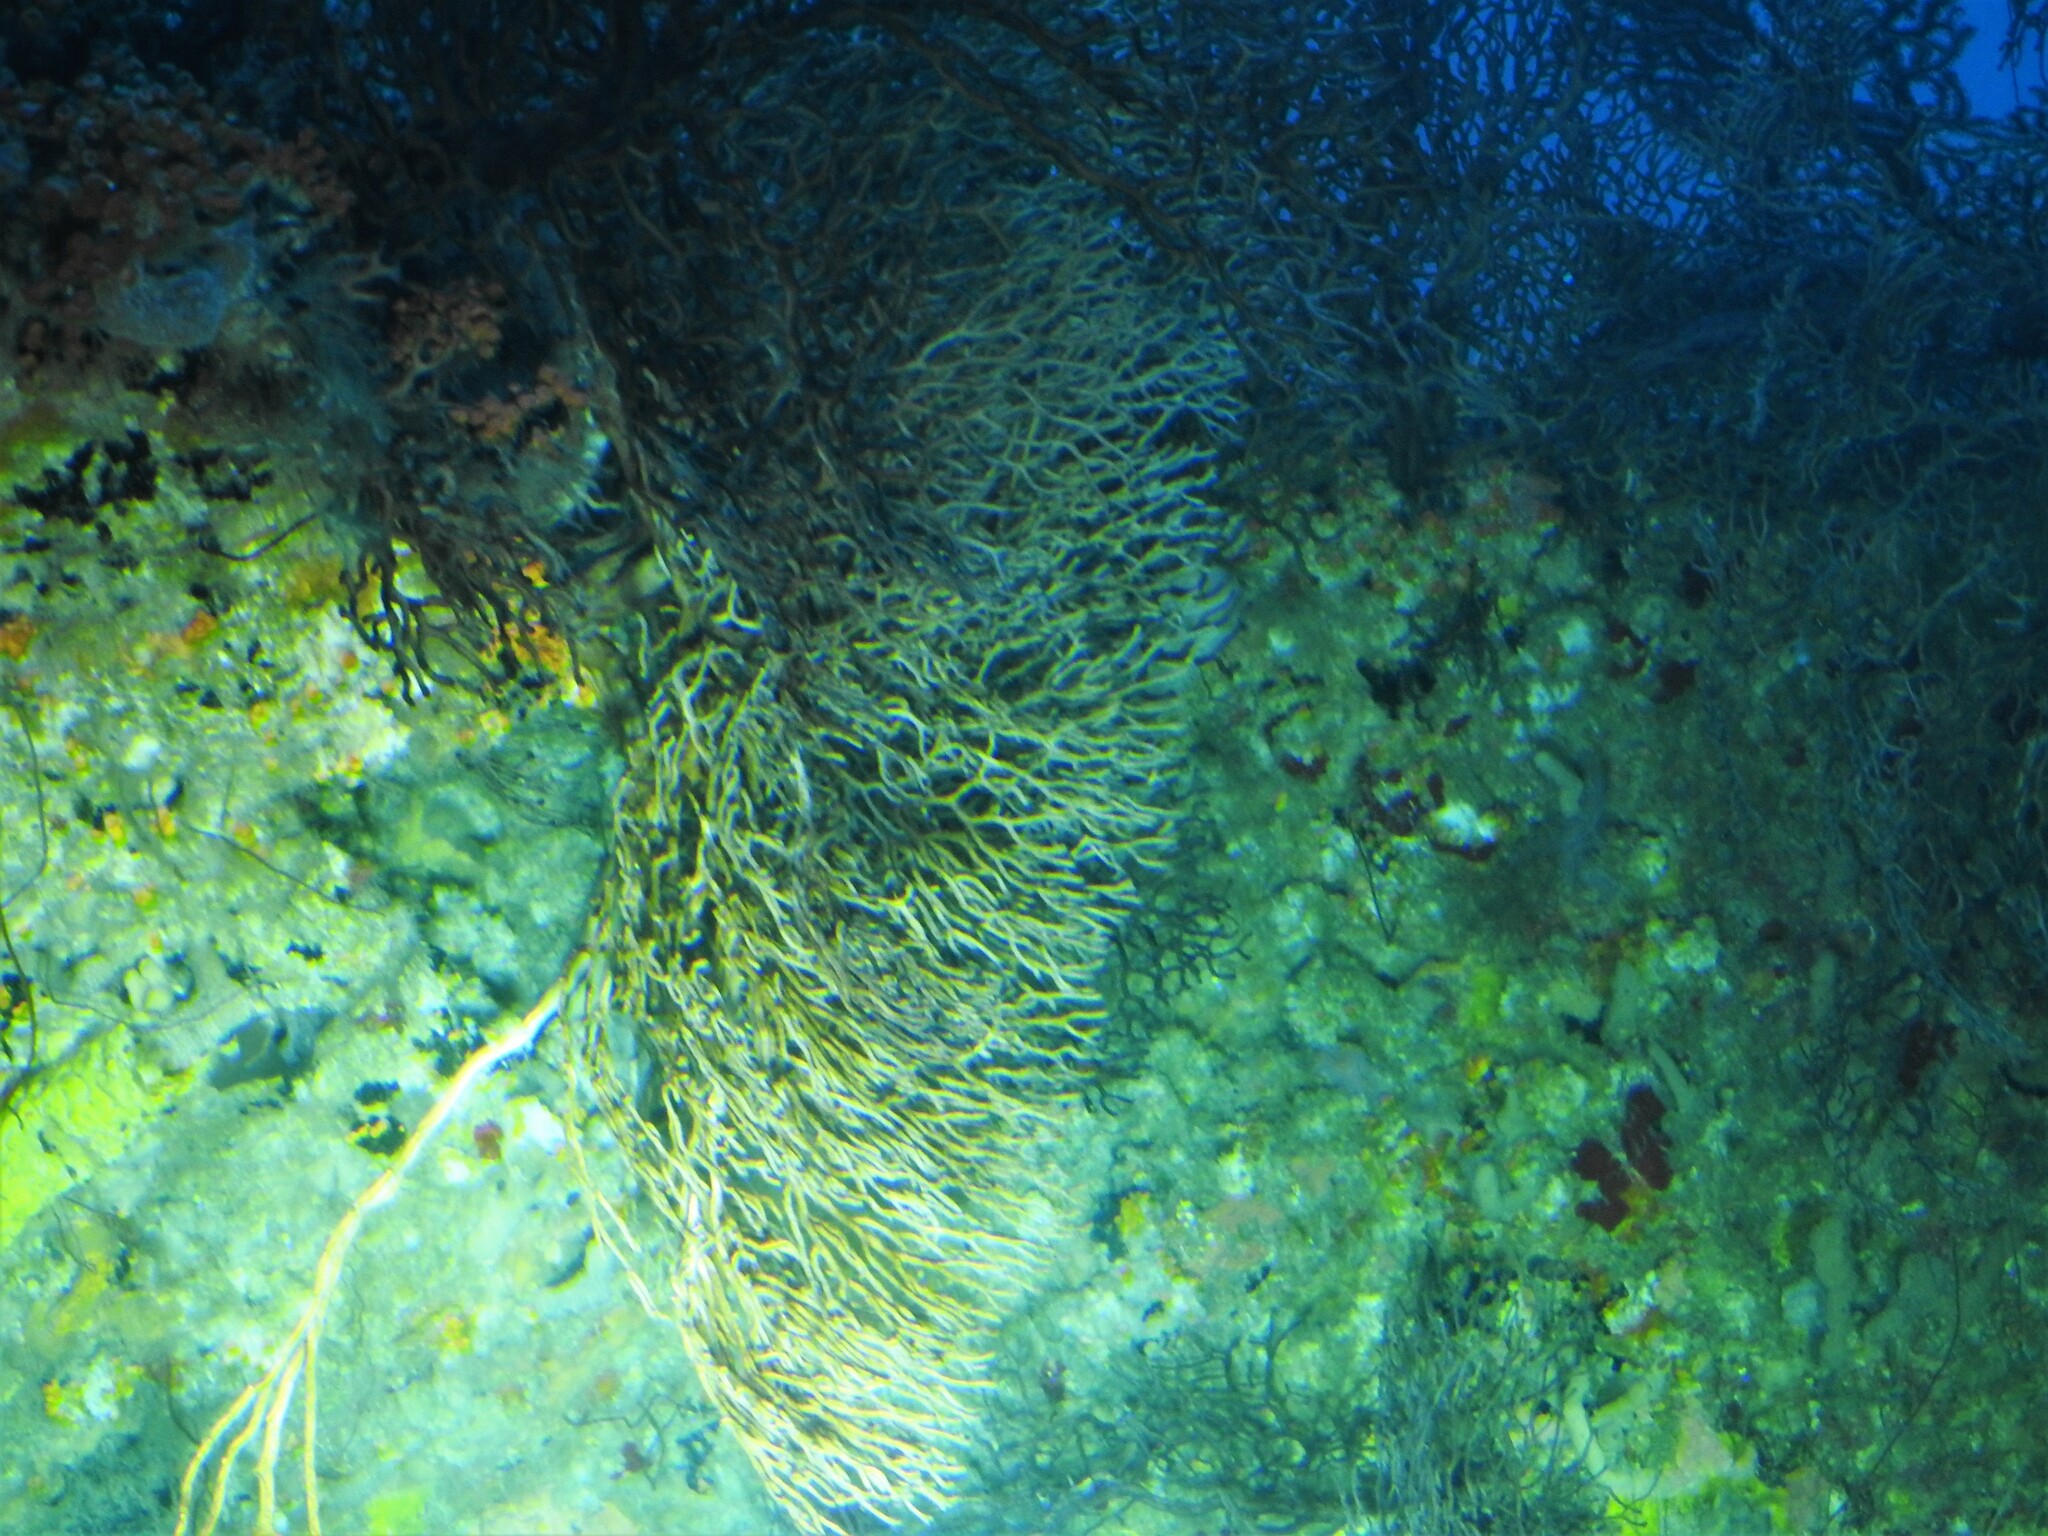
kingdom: Animalia
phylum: Cnidaria
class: Anthozoa
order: Malacalcyonacea
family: Melithaeidae
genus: Iciligorgia
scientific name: Iciligorgia schrammi
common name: Black sea fan
